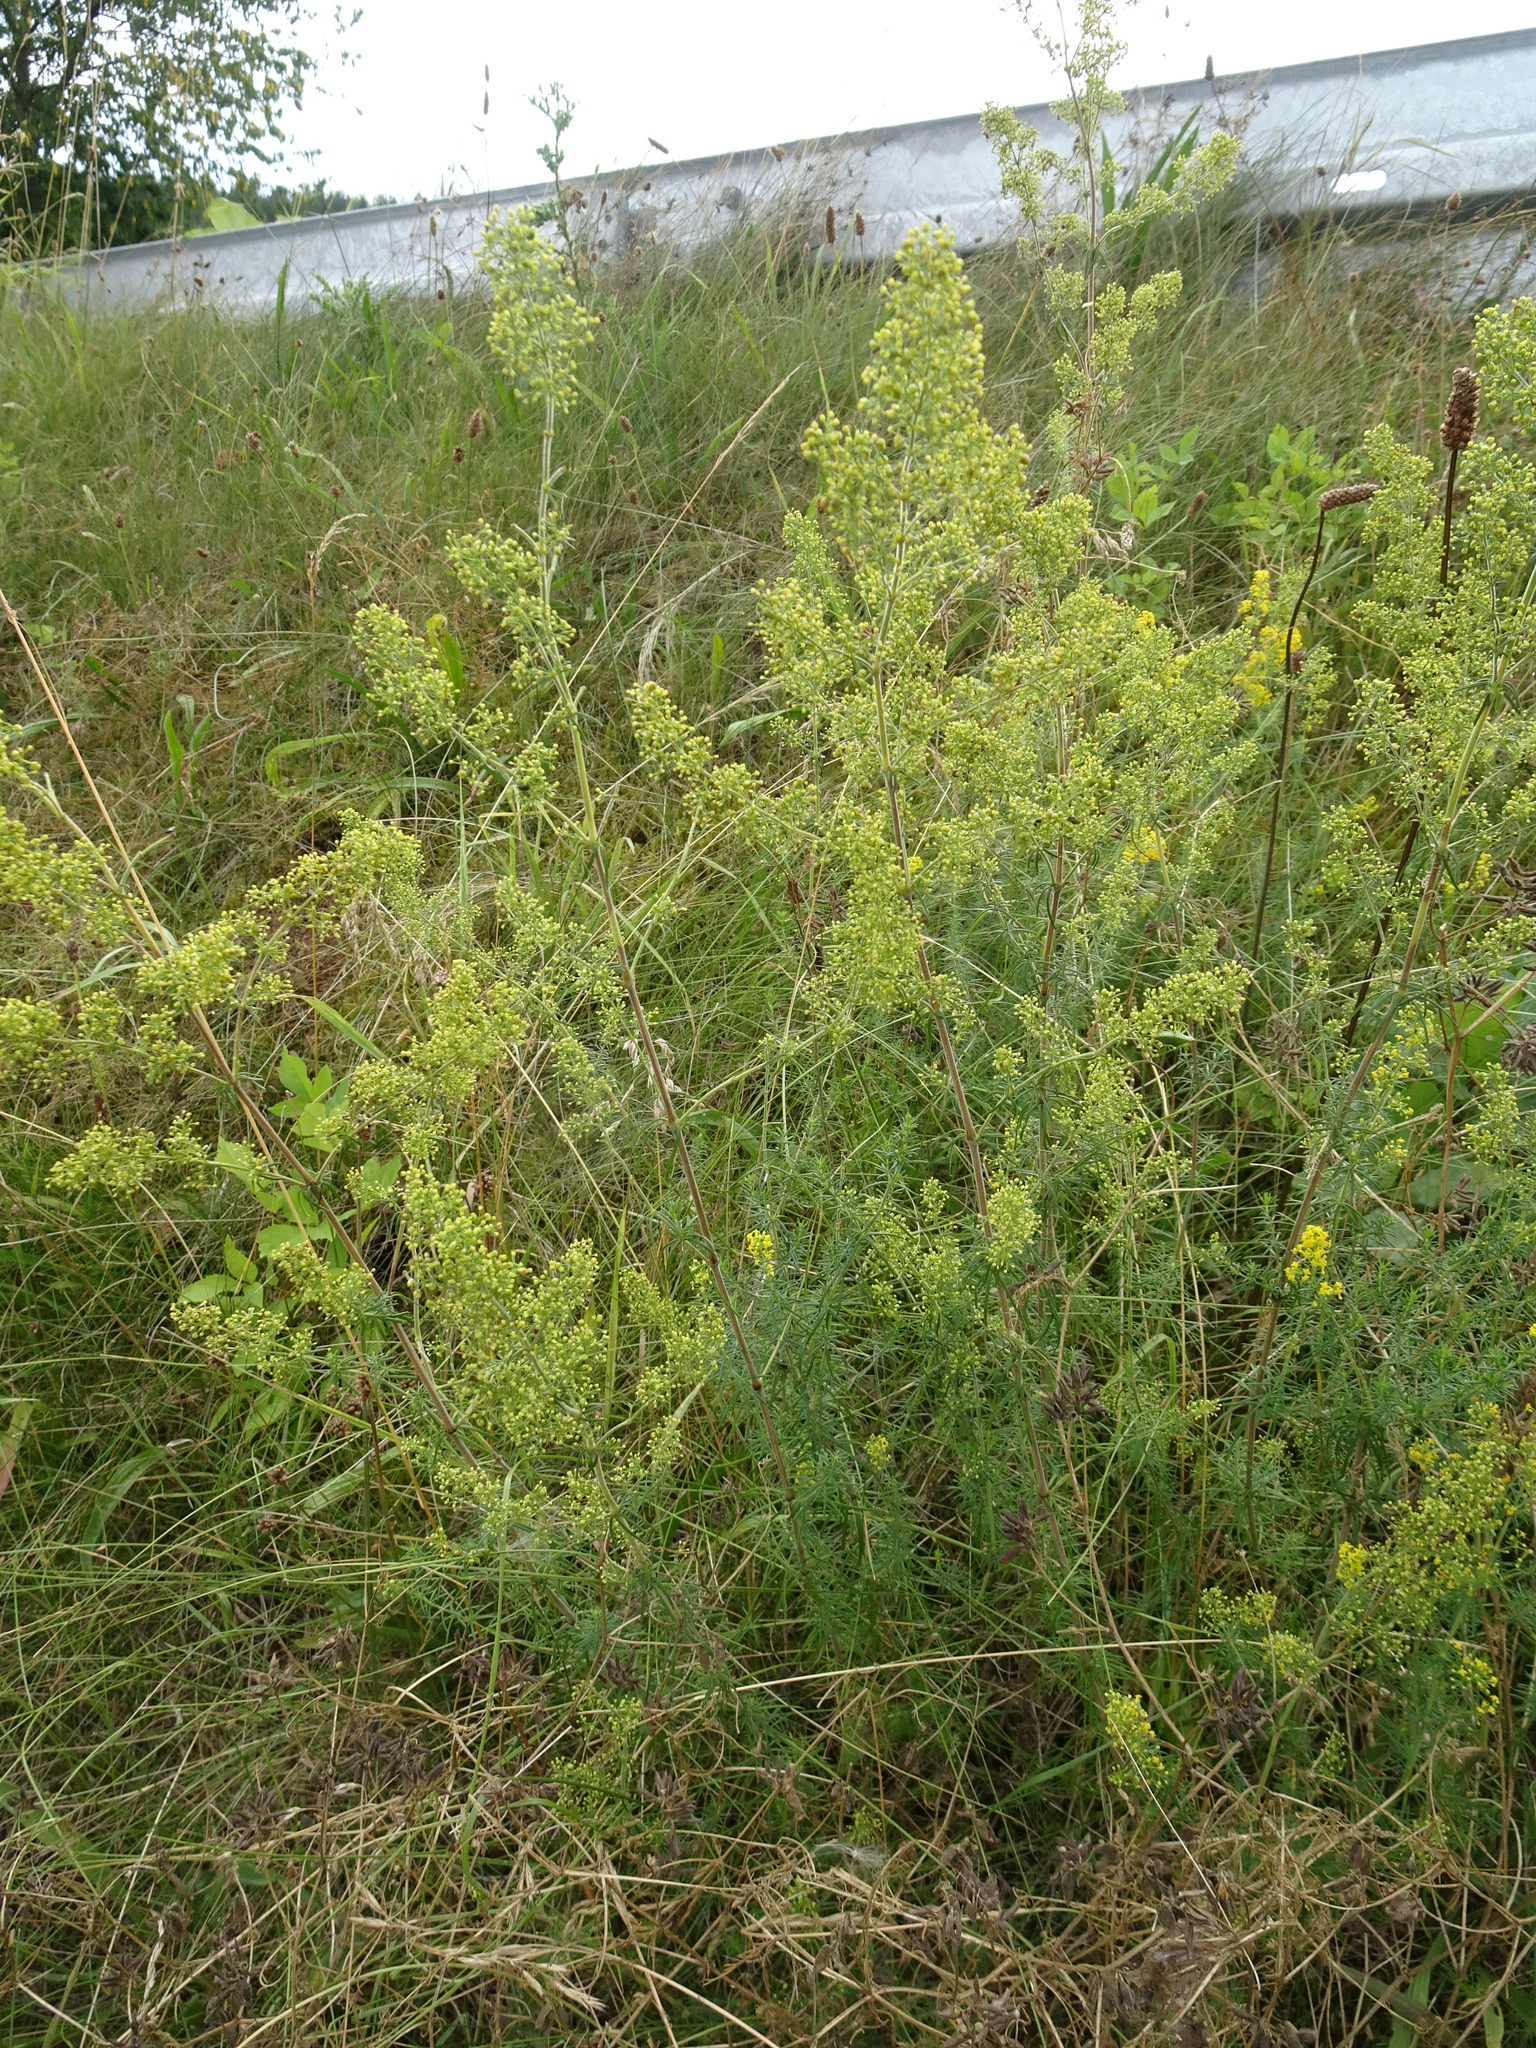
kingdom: Plantae
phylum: Tracheophyta
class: Magnoliopsida
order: Gentianales
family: Rubiaceae
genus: Galium
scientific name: Galium verum
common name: Lady's bedstraw
